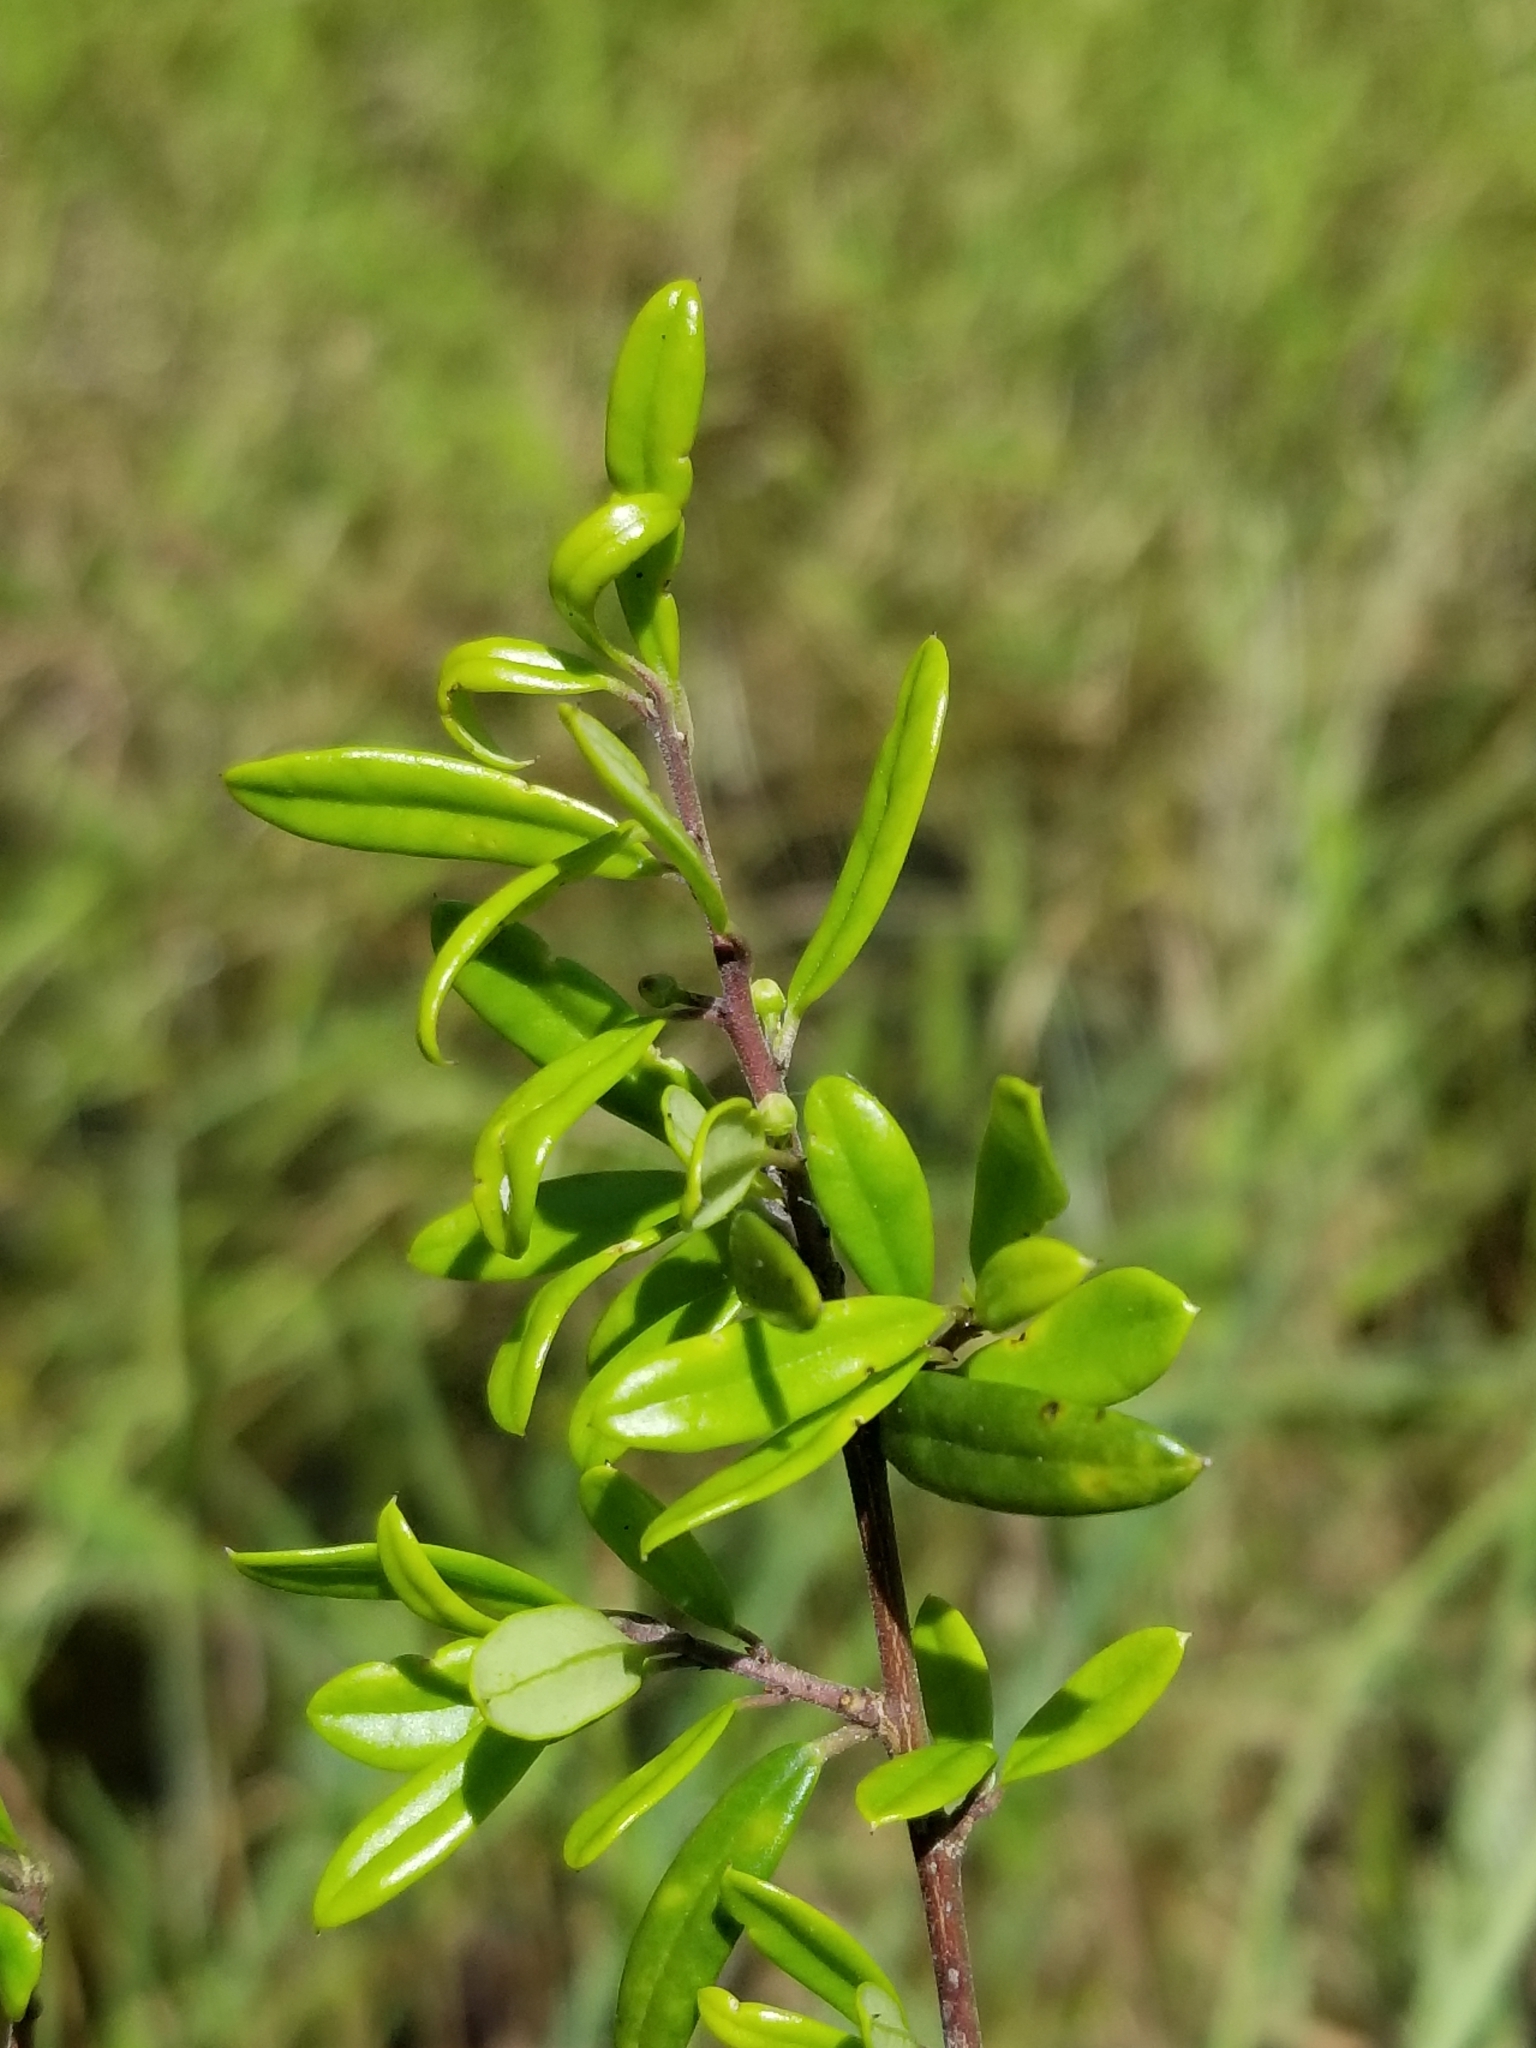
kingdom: Plantae
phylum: Tracheophyta
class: Magnoliopsida
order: Aquifoliales
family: Aquifoliaceae
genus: Ilex
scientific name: Ilex myrtifolia
